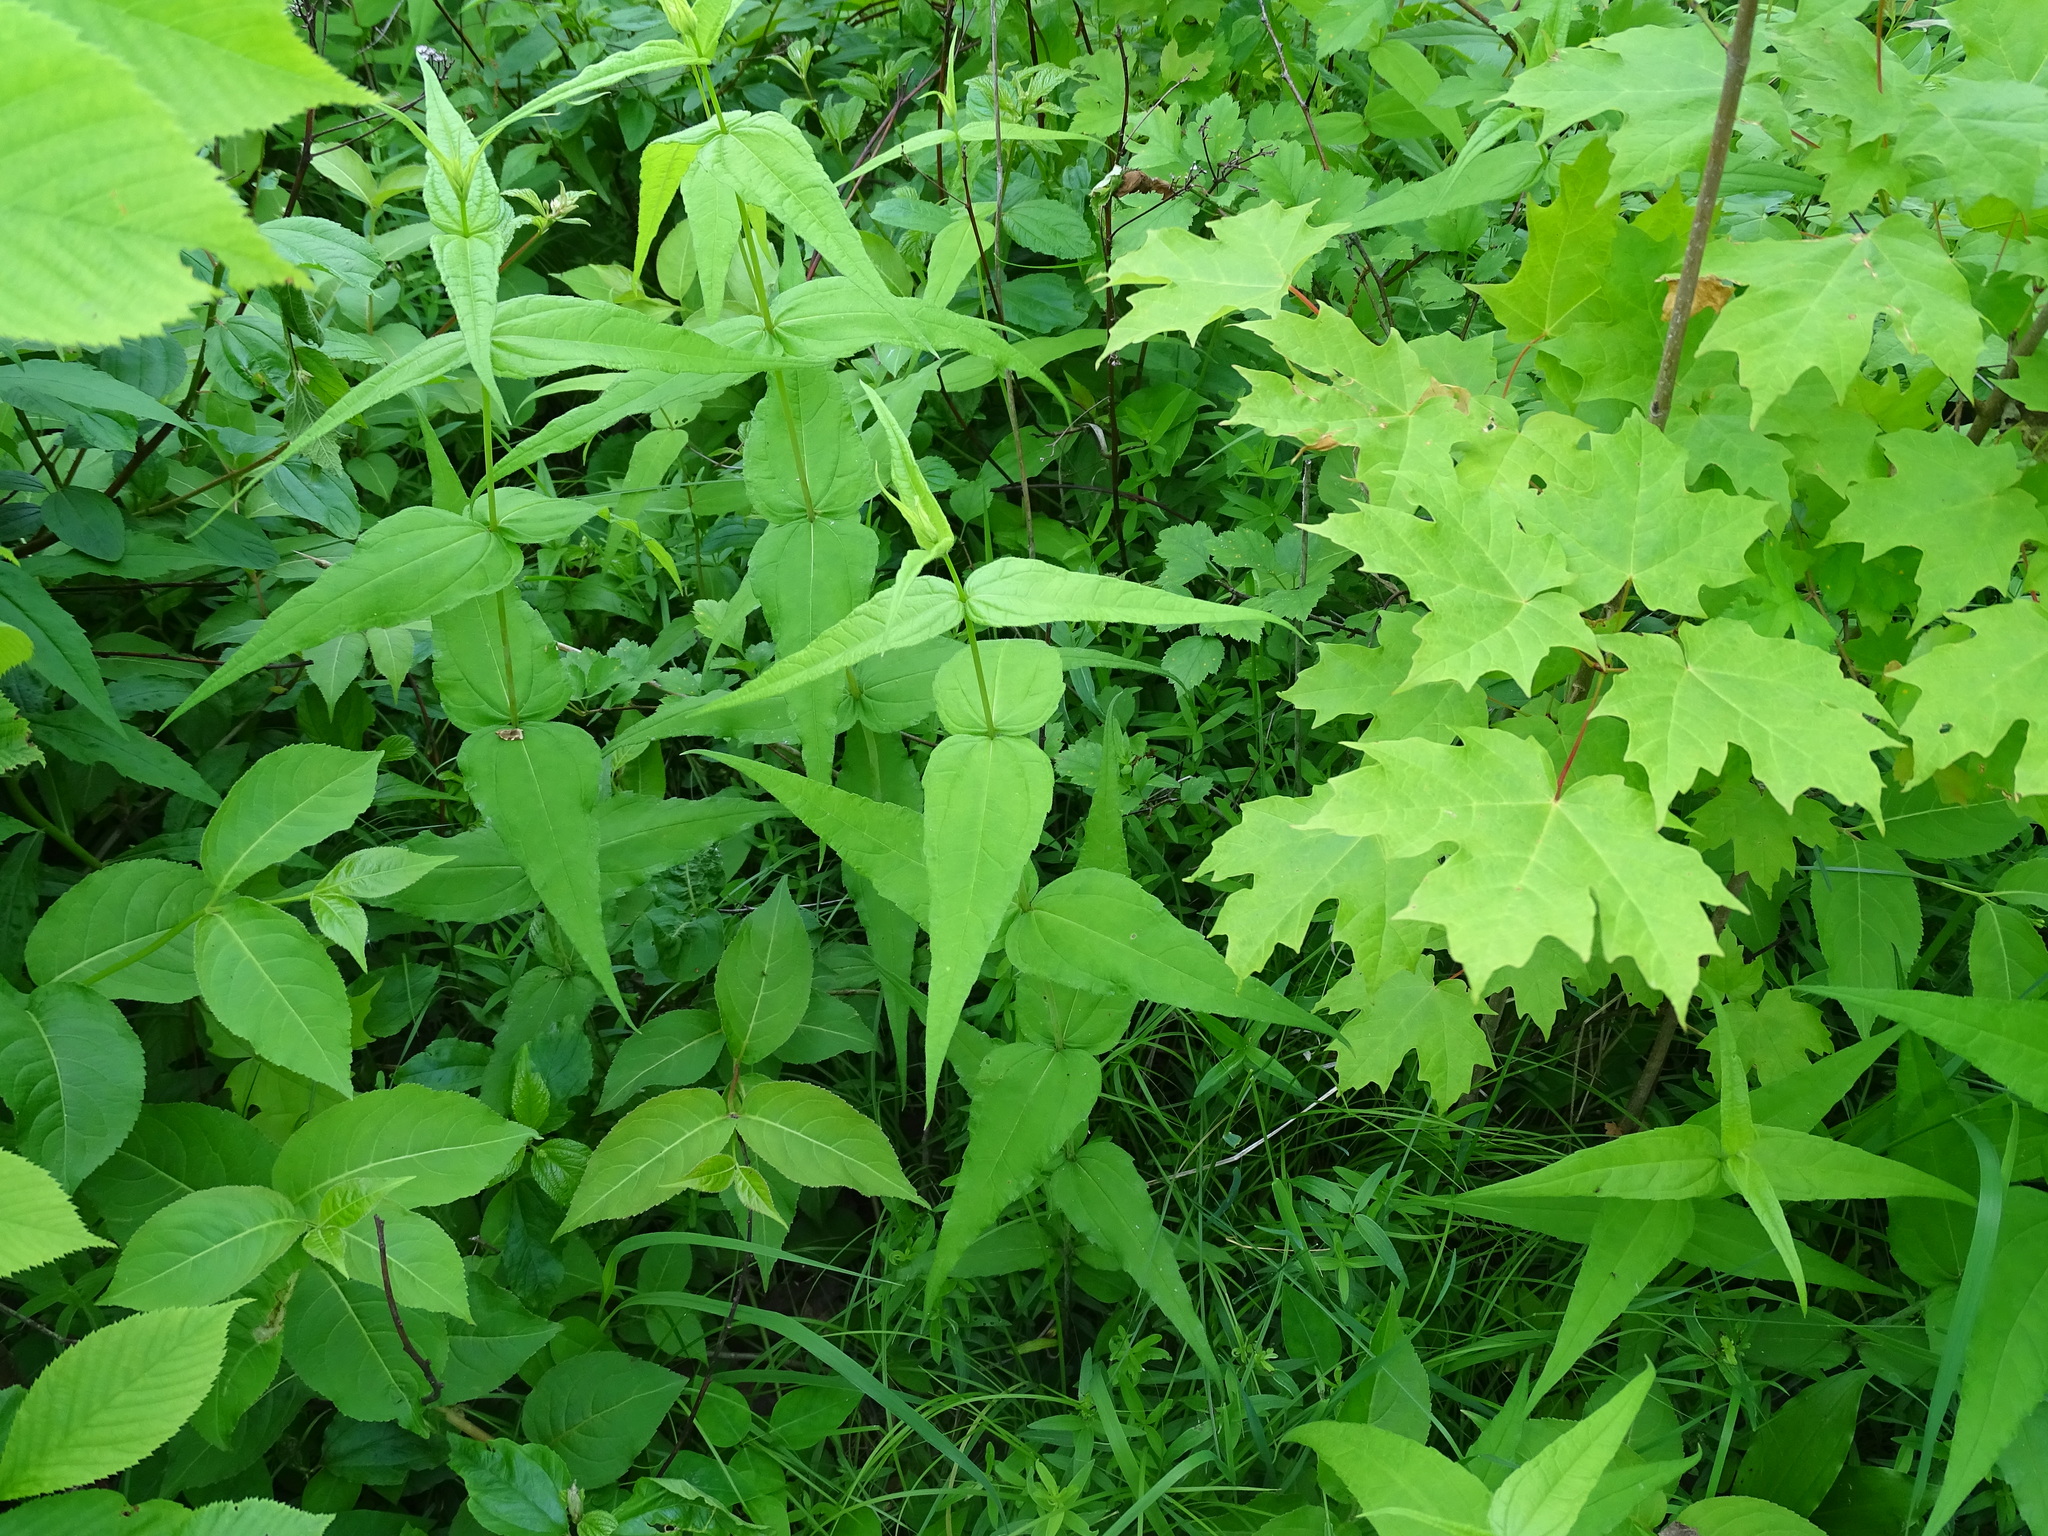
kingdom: Plantae
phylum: Tracheophyta
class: Magnoliopsida
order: Asterales
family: Asteraceae
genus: Helianthus
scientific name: Helianthus divaricatus
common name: Divergent sunflower
